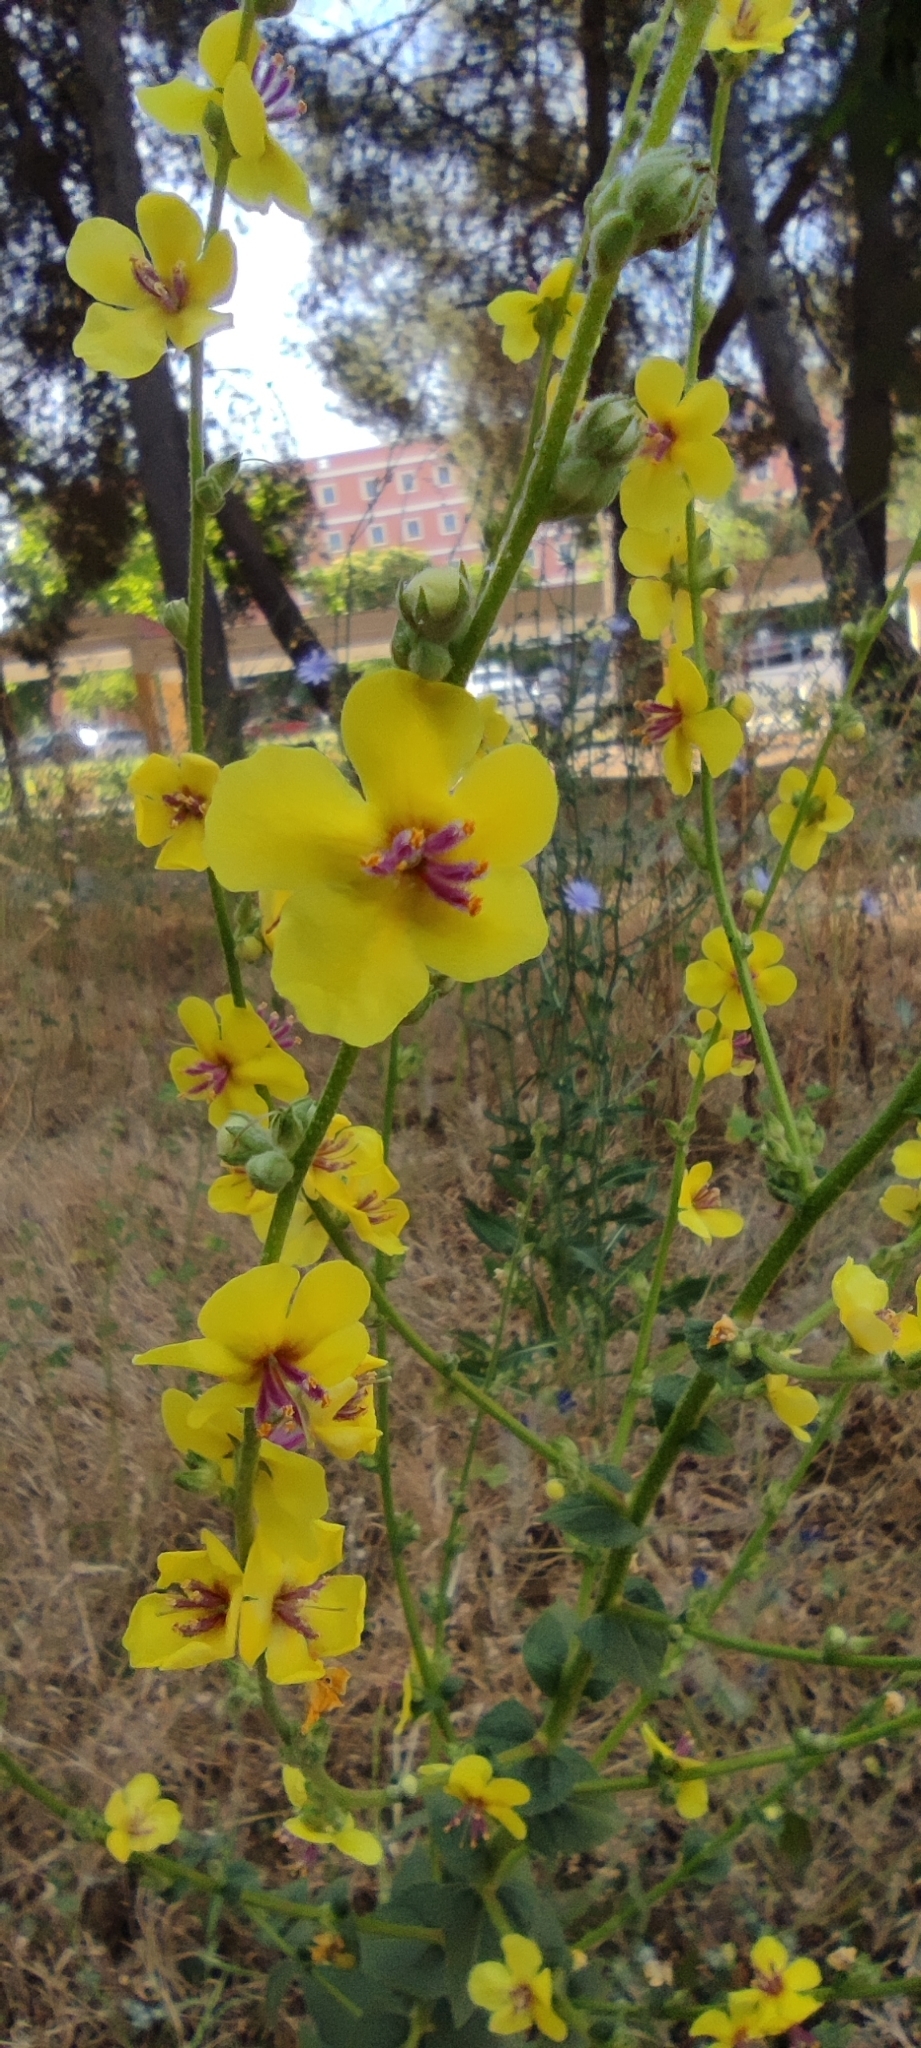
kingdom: Plantae
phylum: Tracheophyta
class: Magnoliopsida
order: Lamiales
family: Scrophulariaceae
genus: Verbascum
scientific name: Verbascum sinuatum
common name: Wavyleaf mullein
